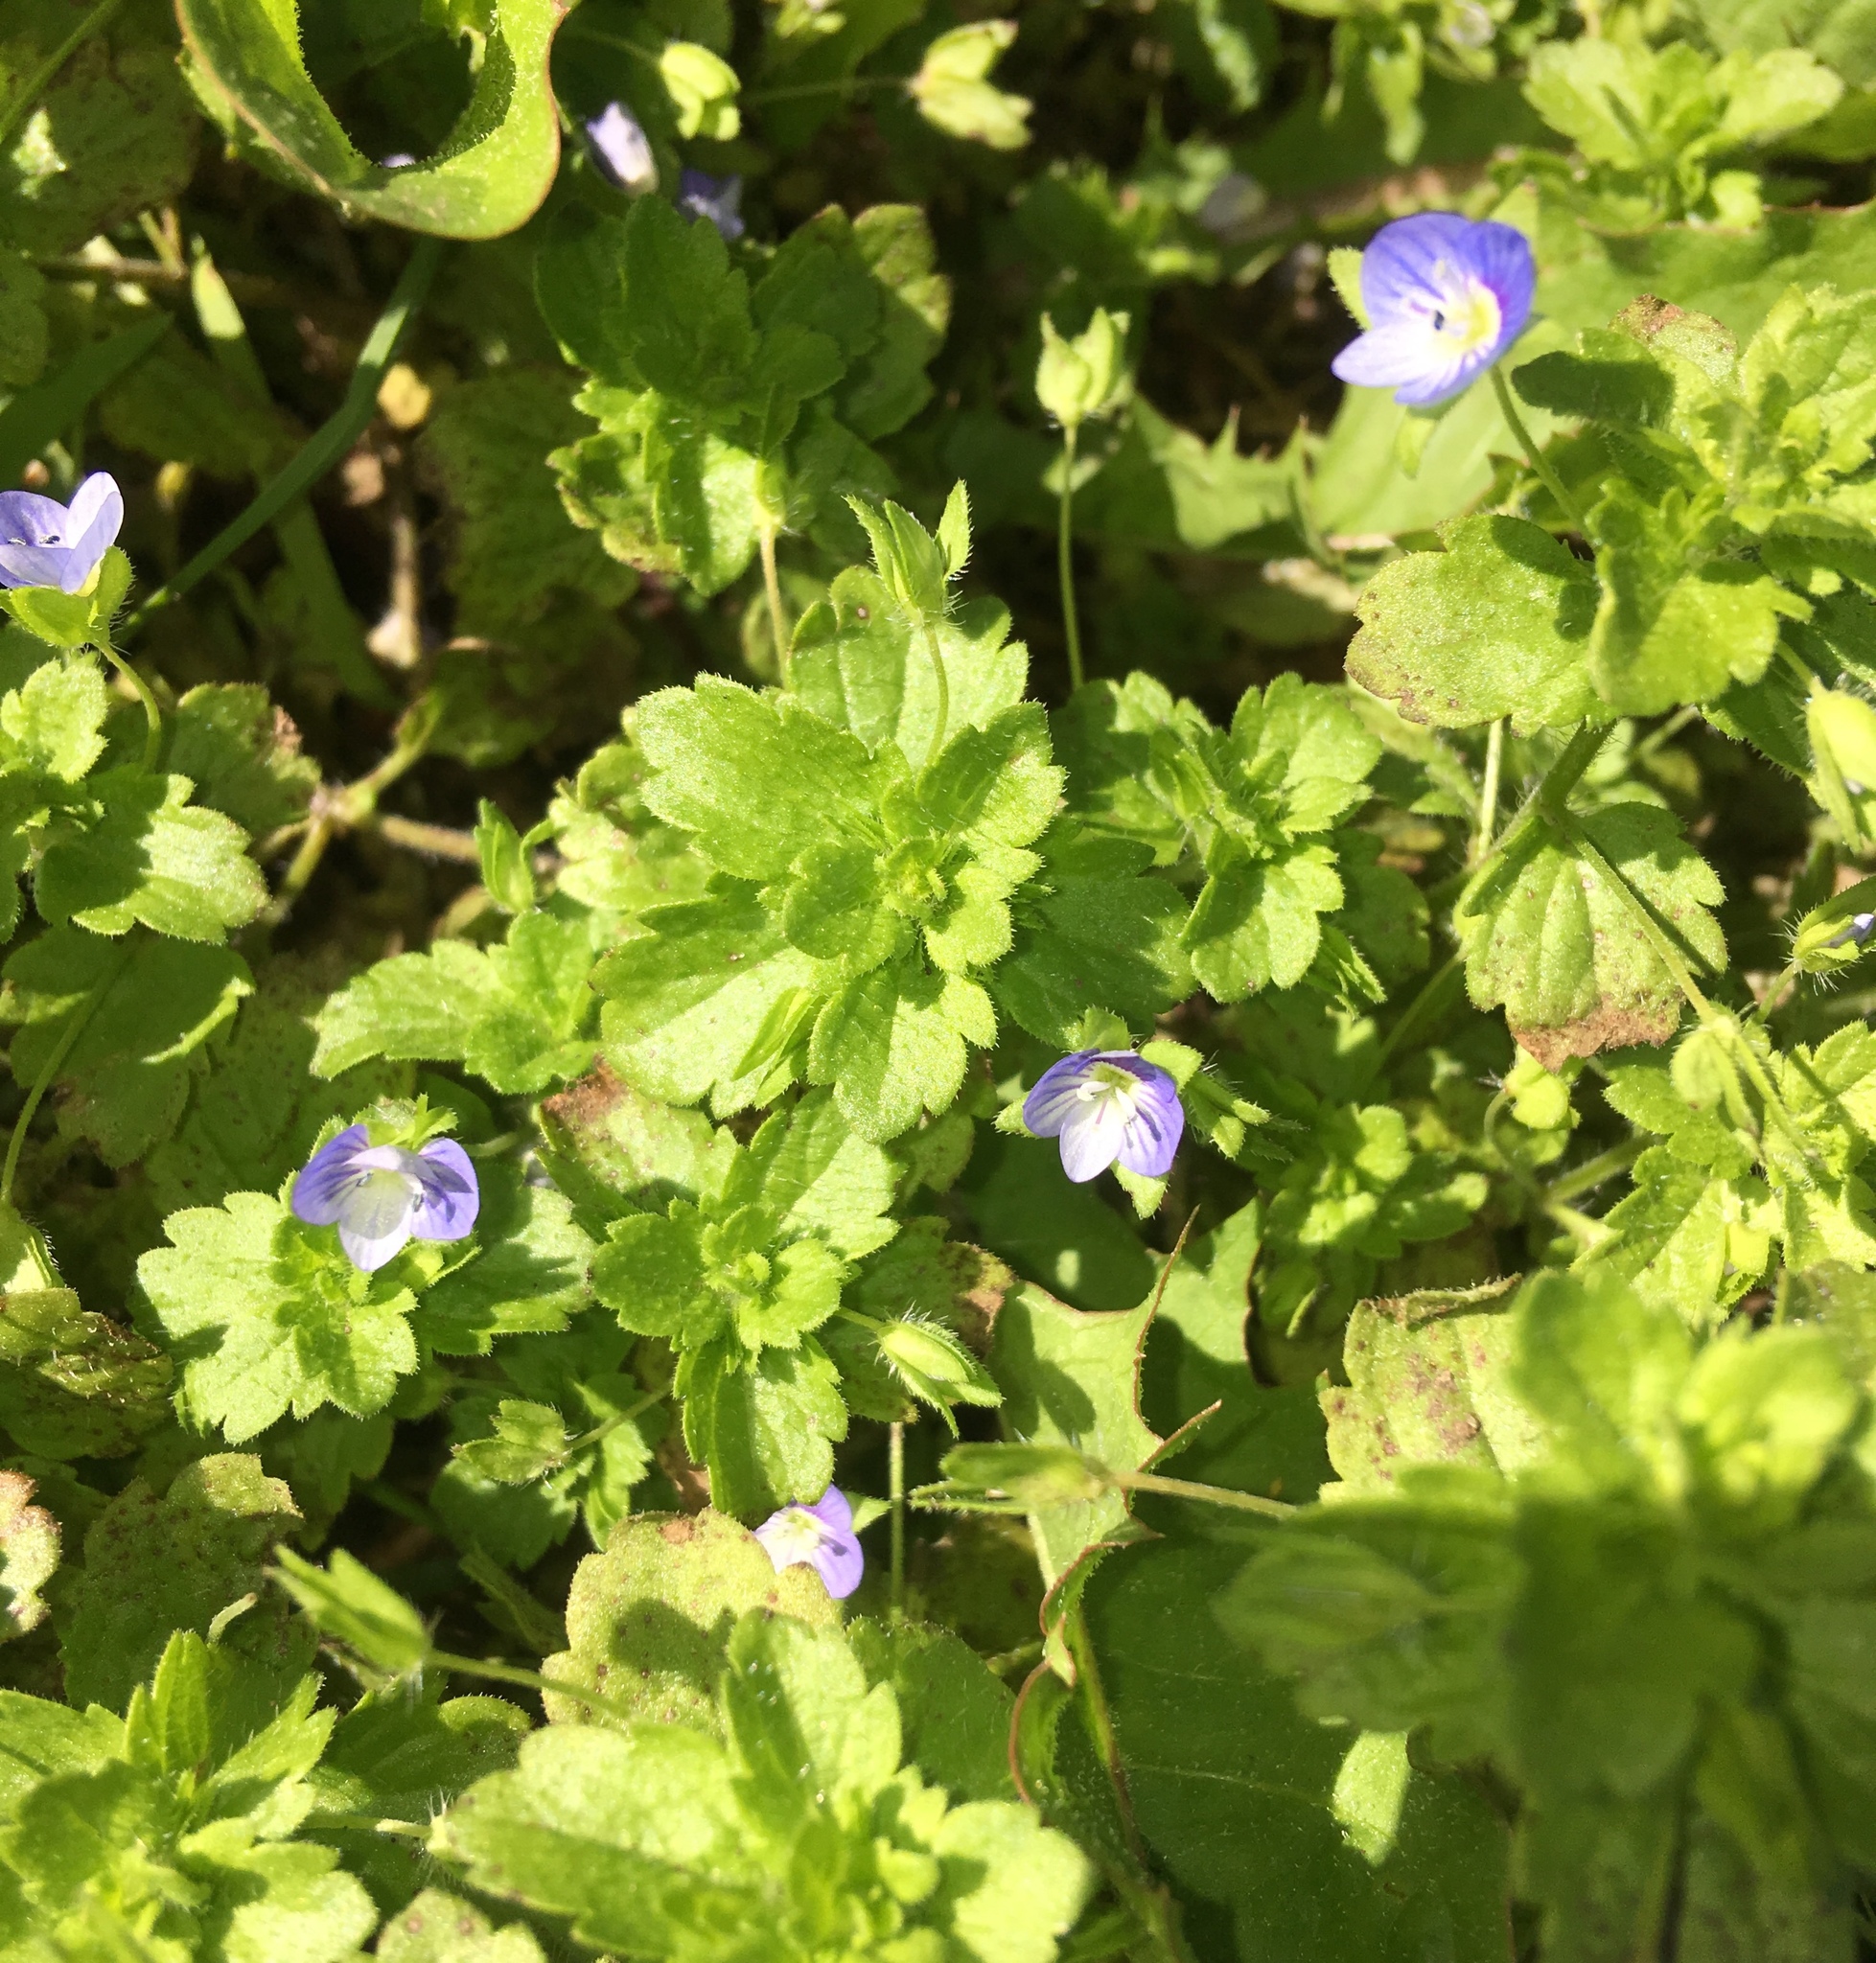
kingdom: Plantae
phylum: Tracheophyta
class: Magnoliopsida
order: Lamiales
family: Plantaginaceae
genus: Veronica
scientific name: Veronica persica
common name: Common field-speedwell
